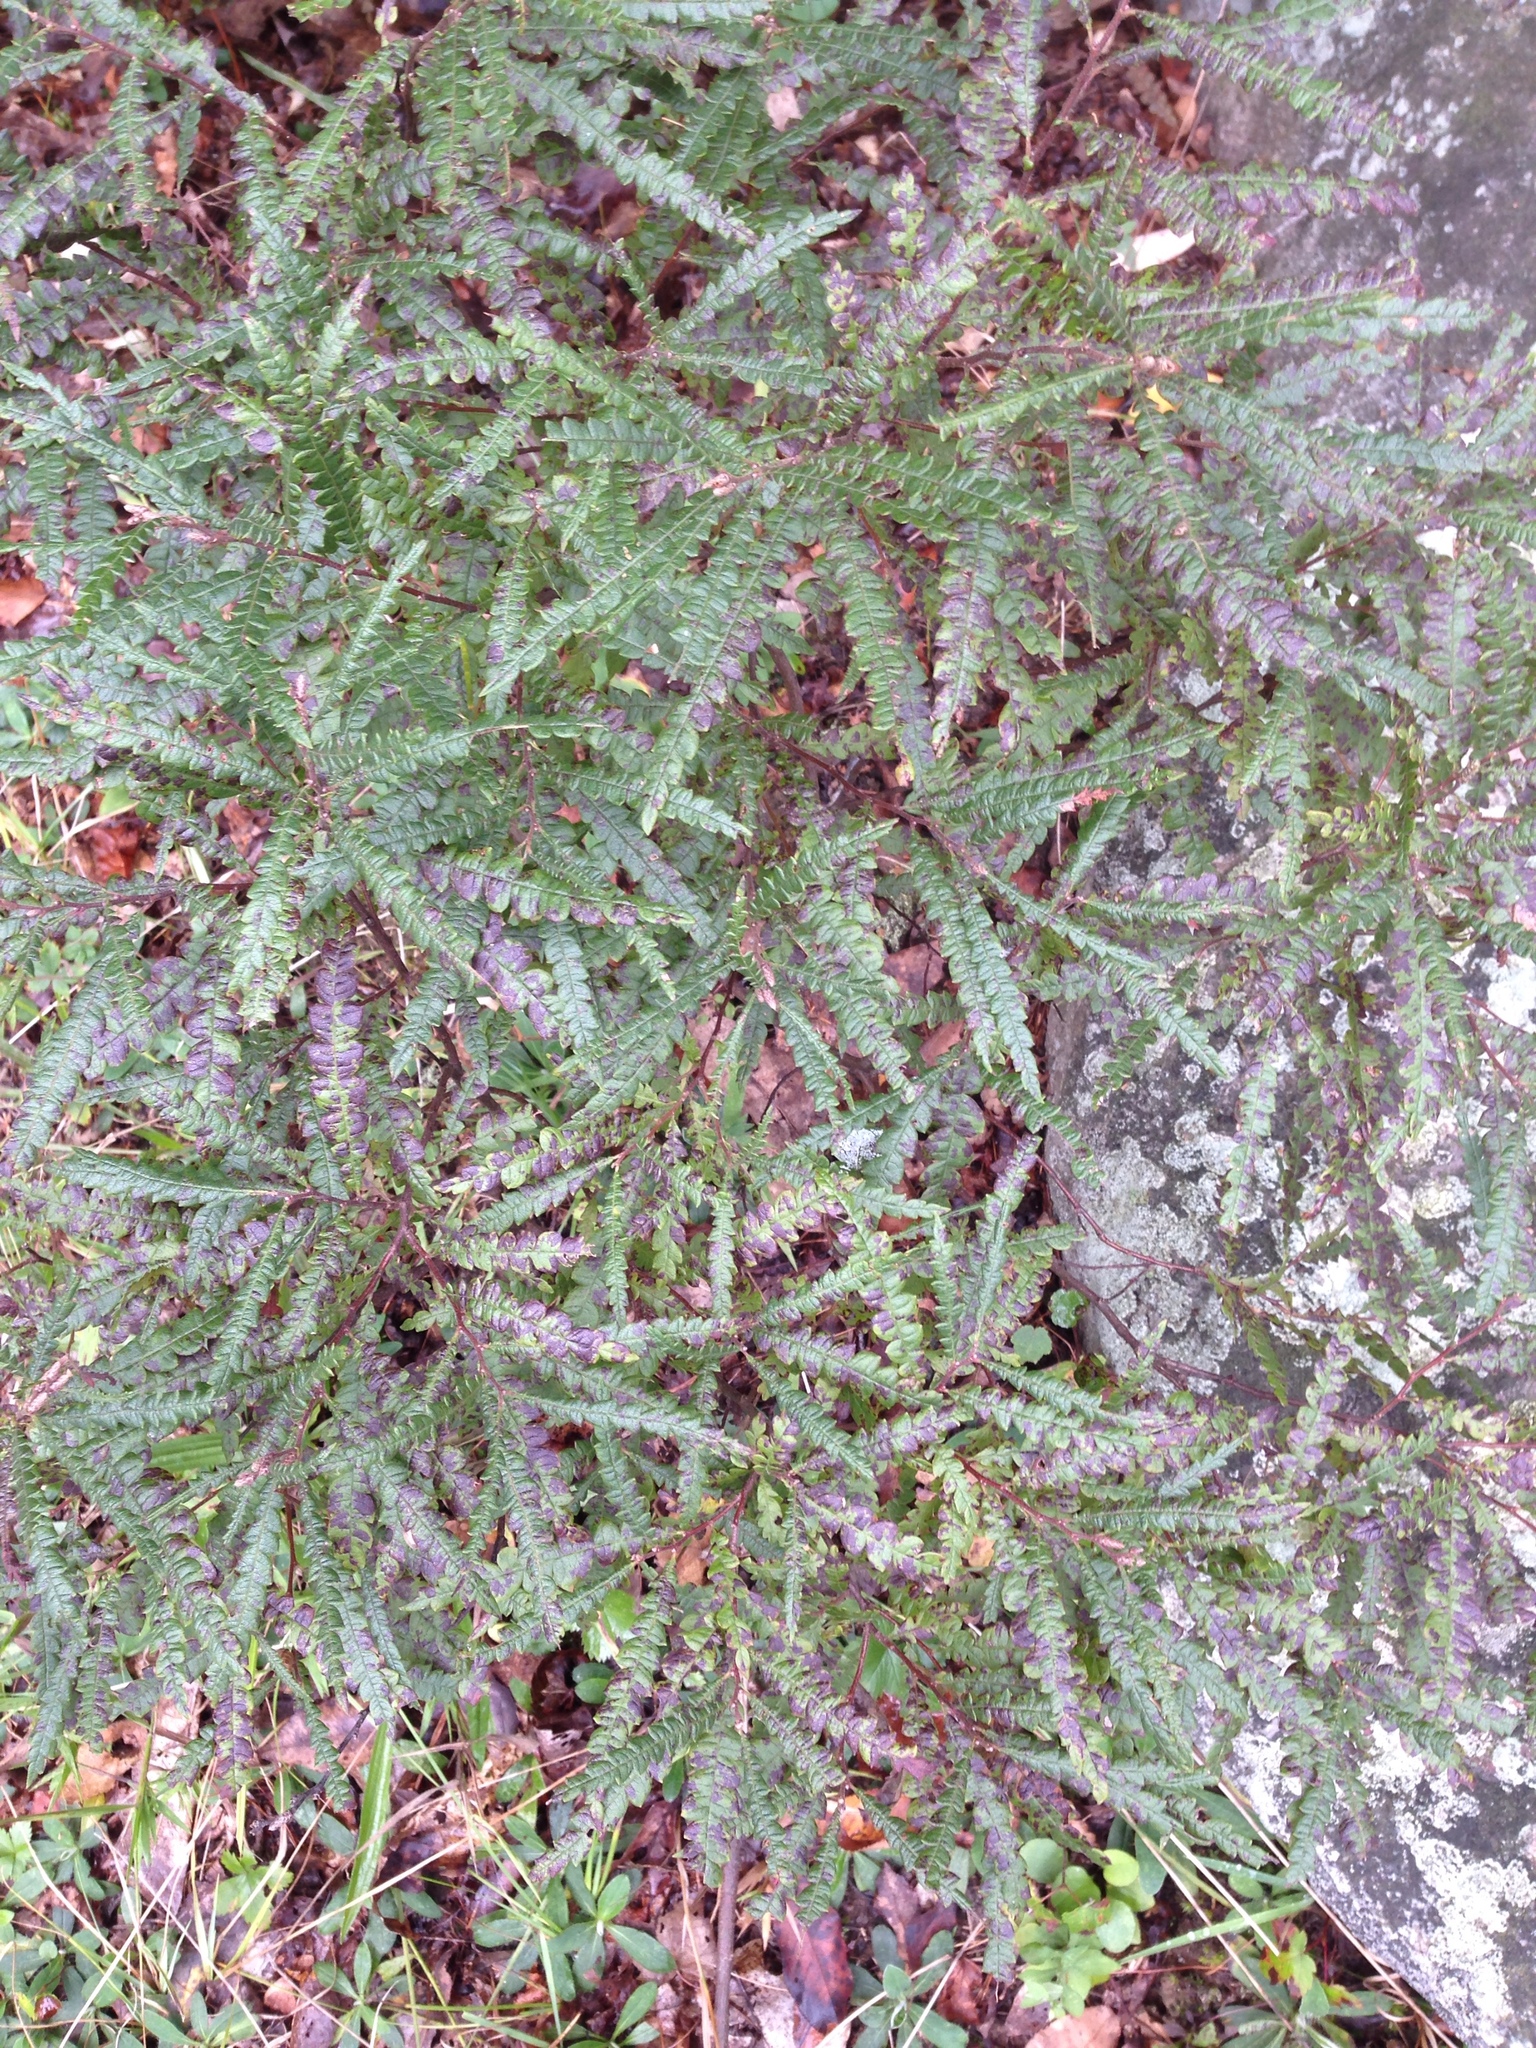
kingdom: Plantae
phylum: Tracheophyta
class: Magnoliopsida
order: Fagales
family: Myricaceae
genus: Comptonia
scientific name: Comptonia peregrina
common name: Sweet-fern
